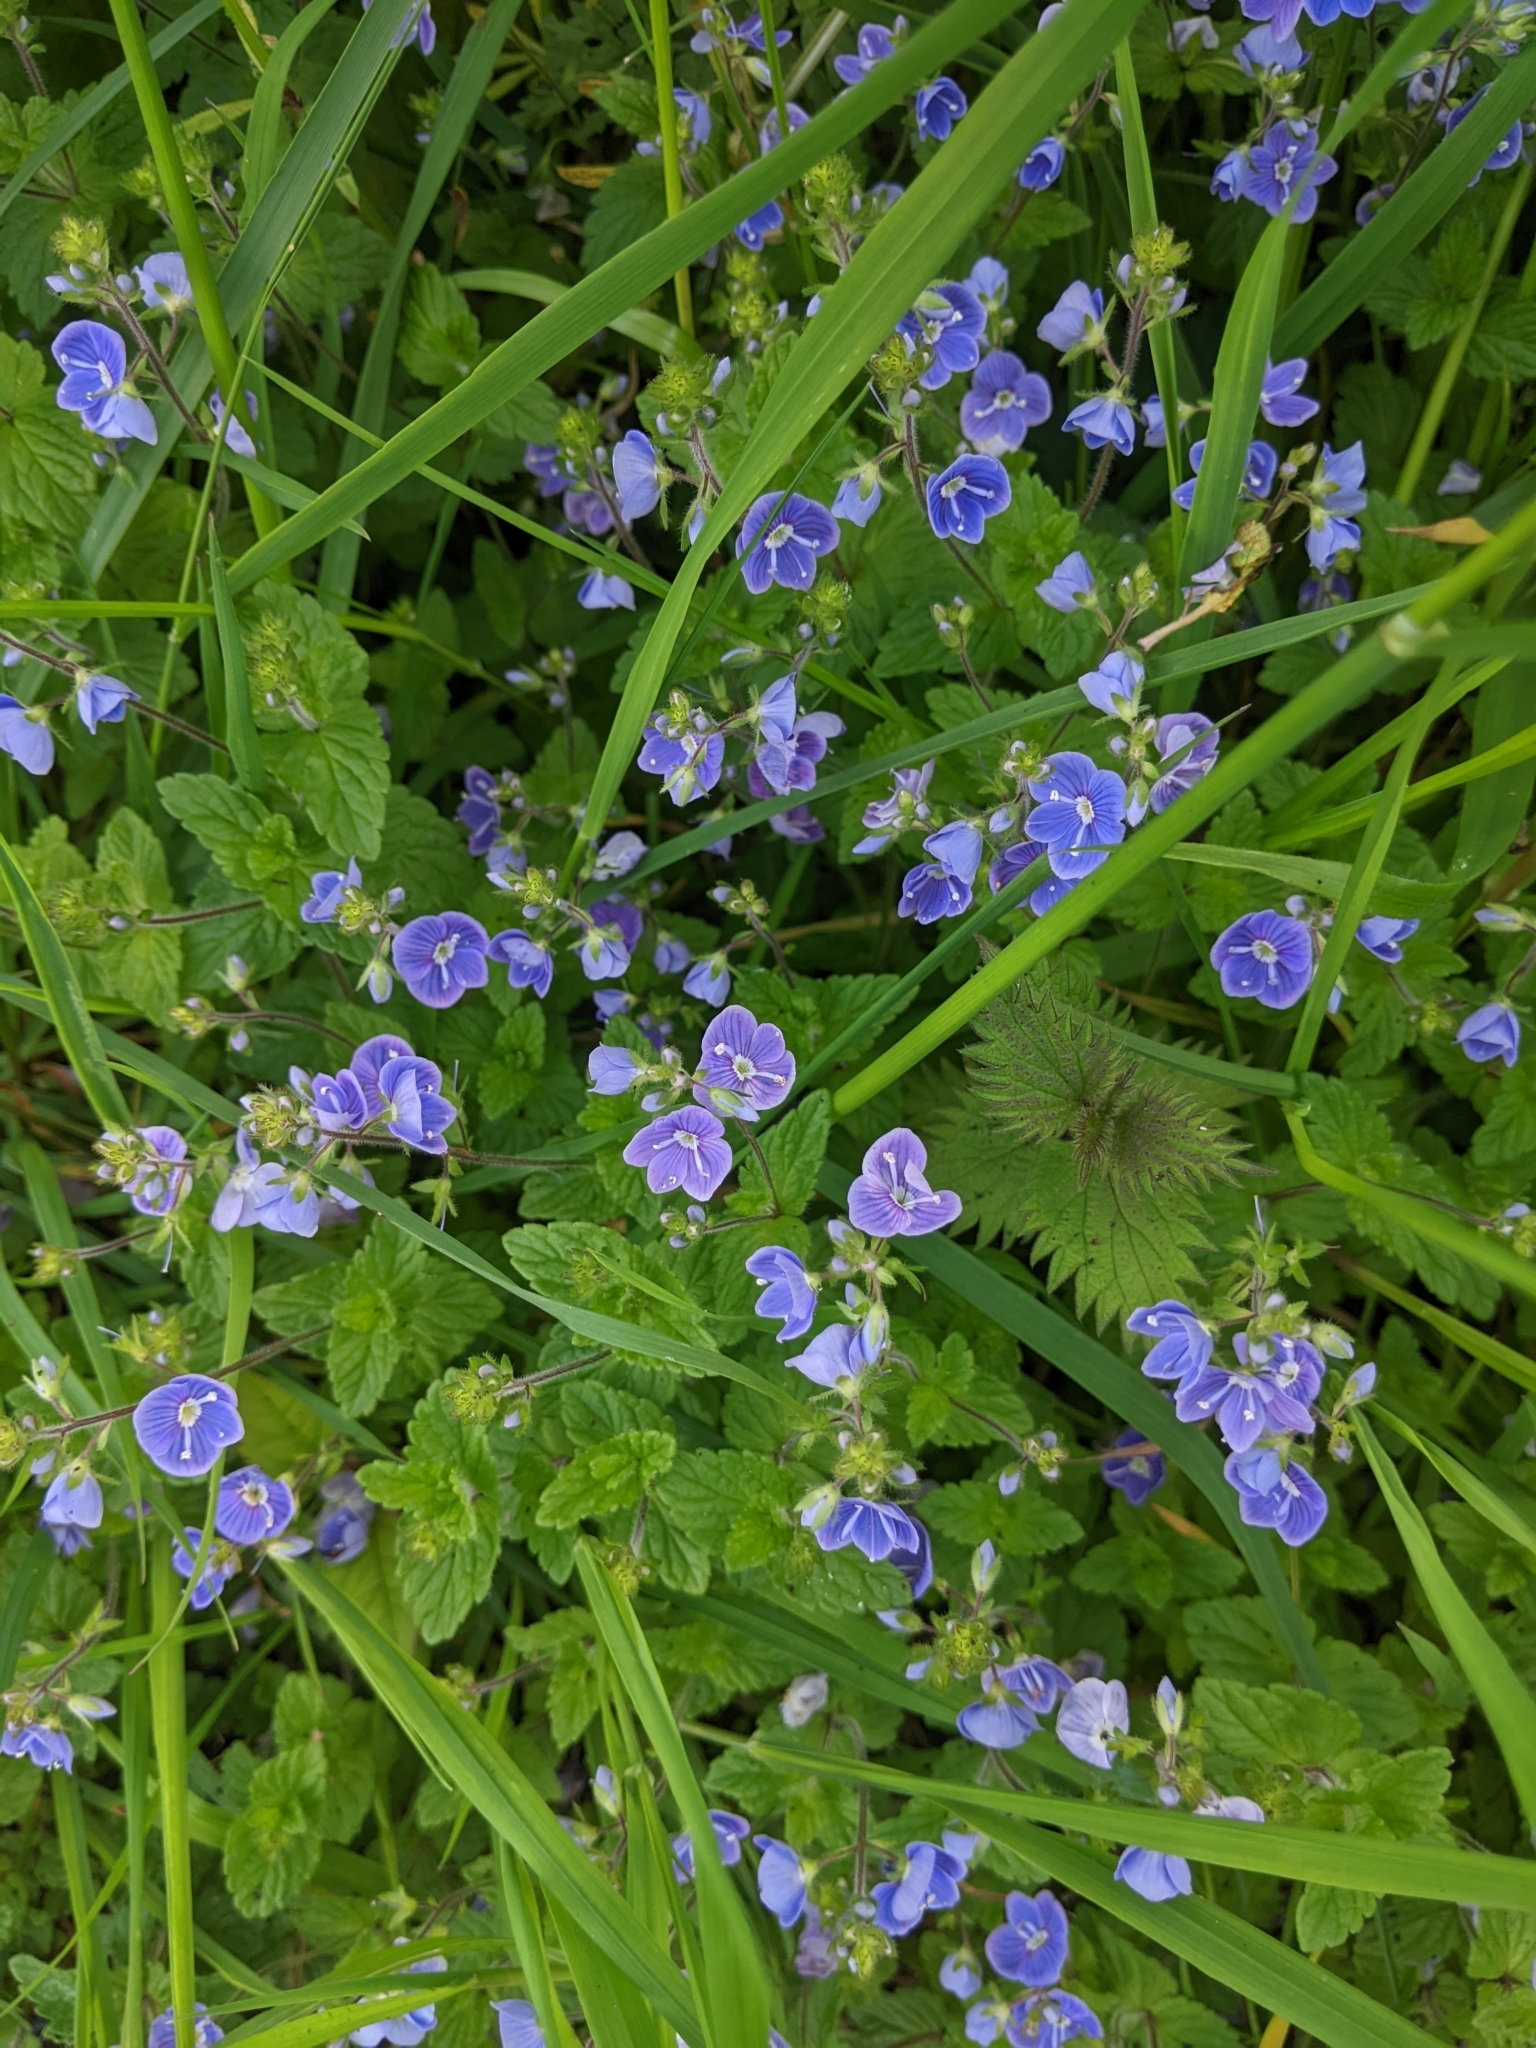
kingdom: Plantae
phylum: Tracheophyta
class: Magnoliopsida
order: Lamiales
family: Plantaginaceae
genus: Veronica
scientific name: Veronica chamaedrys
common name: Germander speedwell
